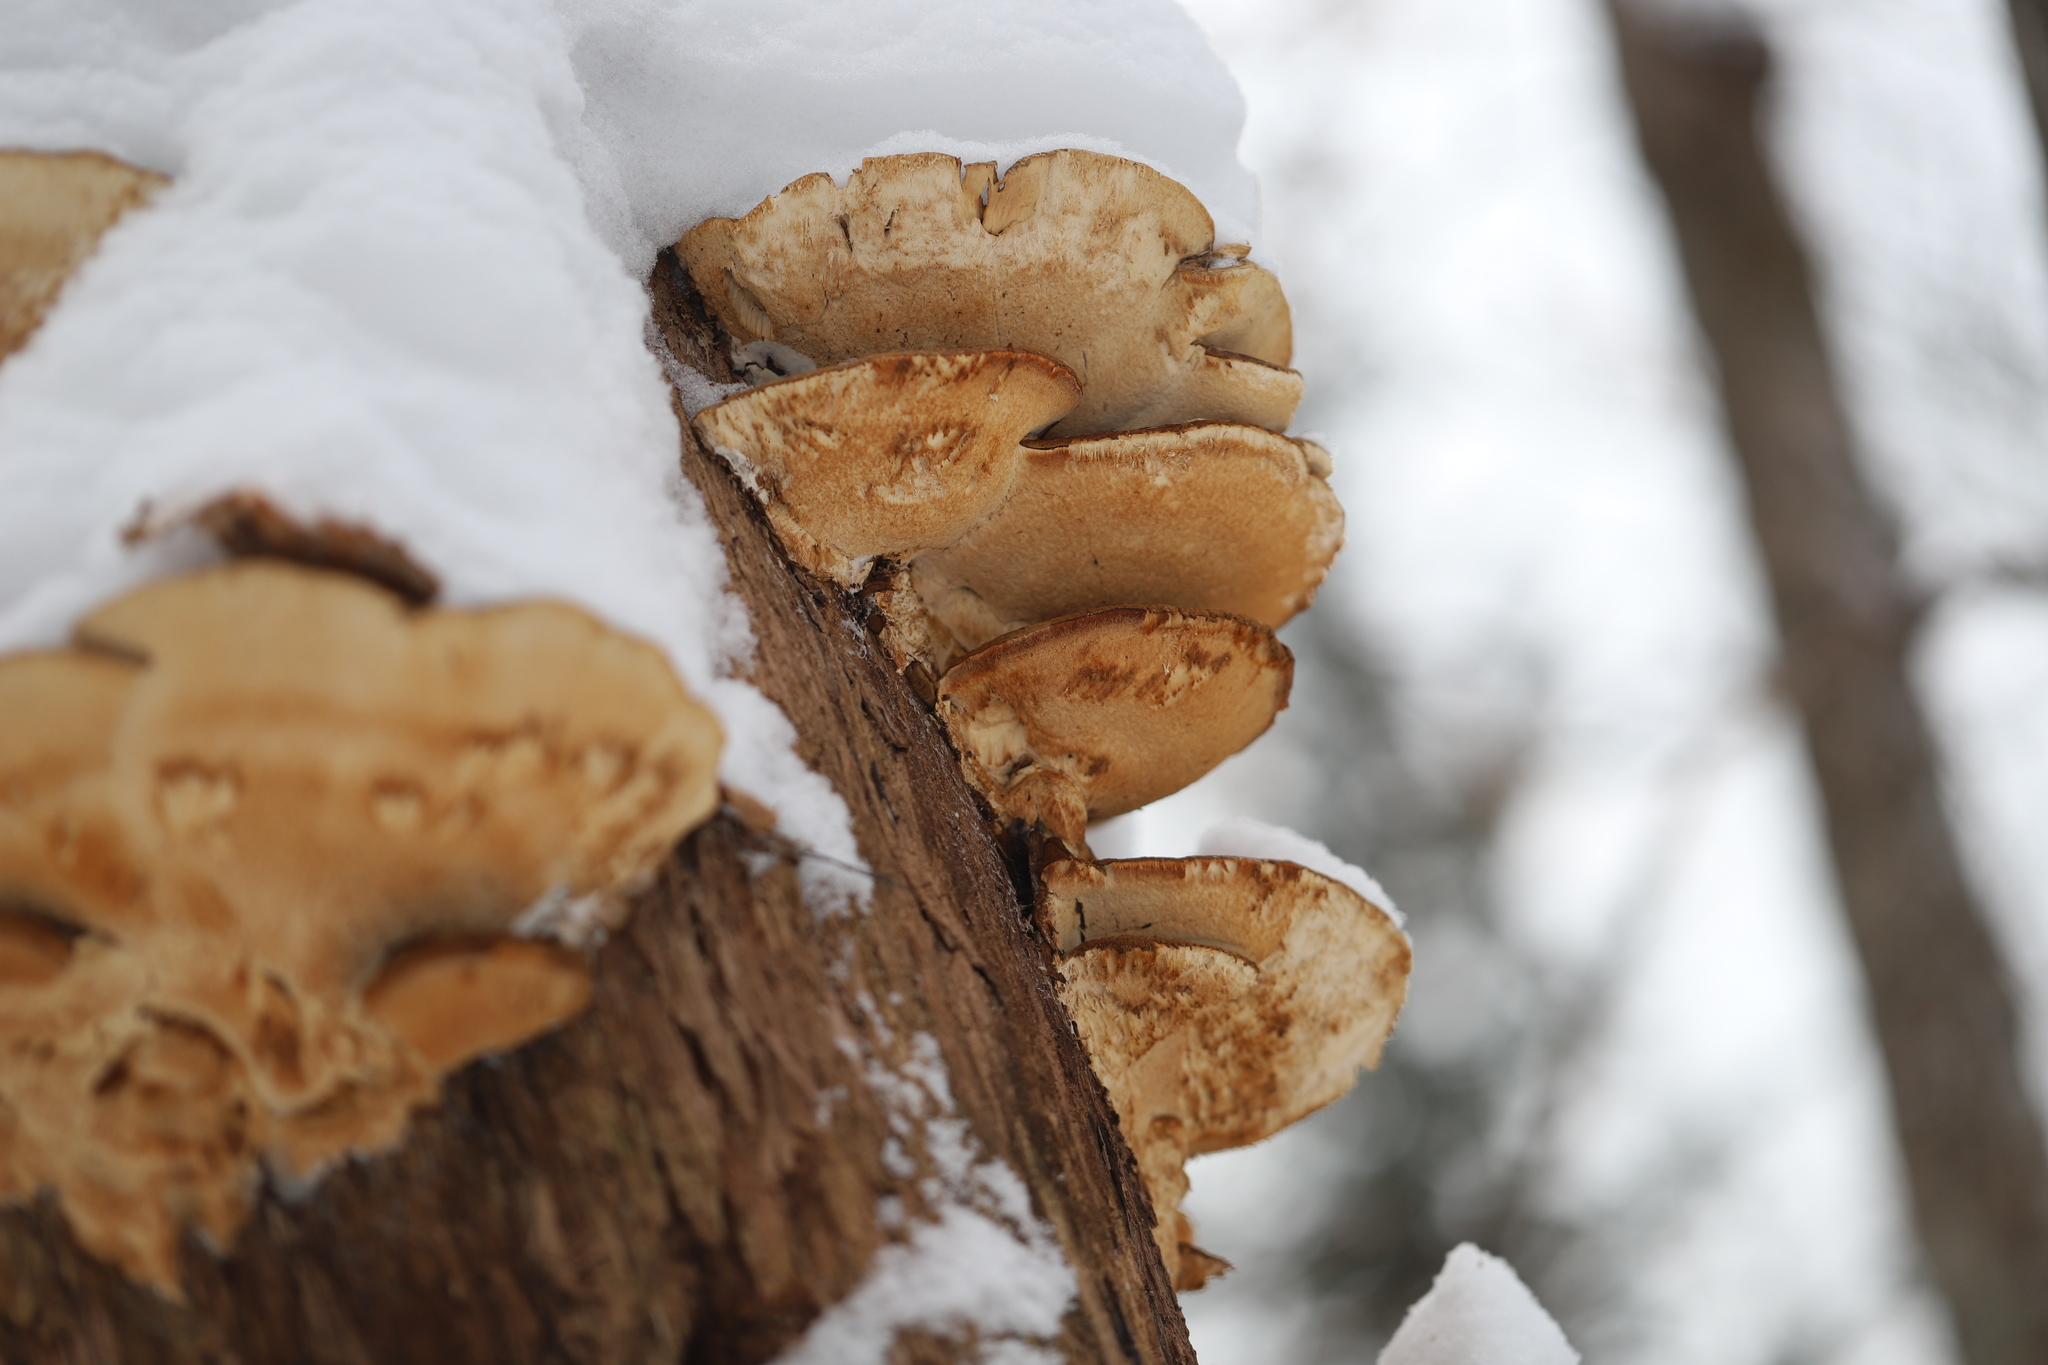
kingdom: Fungi
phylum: Basidiomycota
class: Agaricomycetes
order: Polyporales
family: Ischnodermataceae
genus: Ischnoderma
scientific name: Ischnoderma resinosum
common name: Resinous polypore
